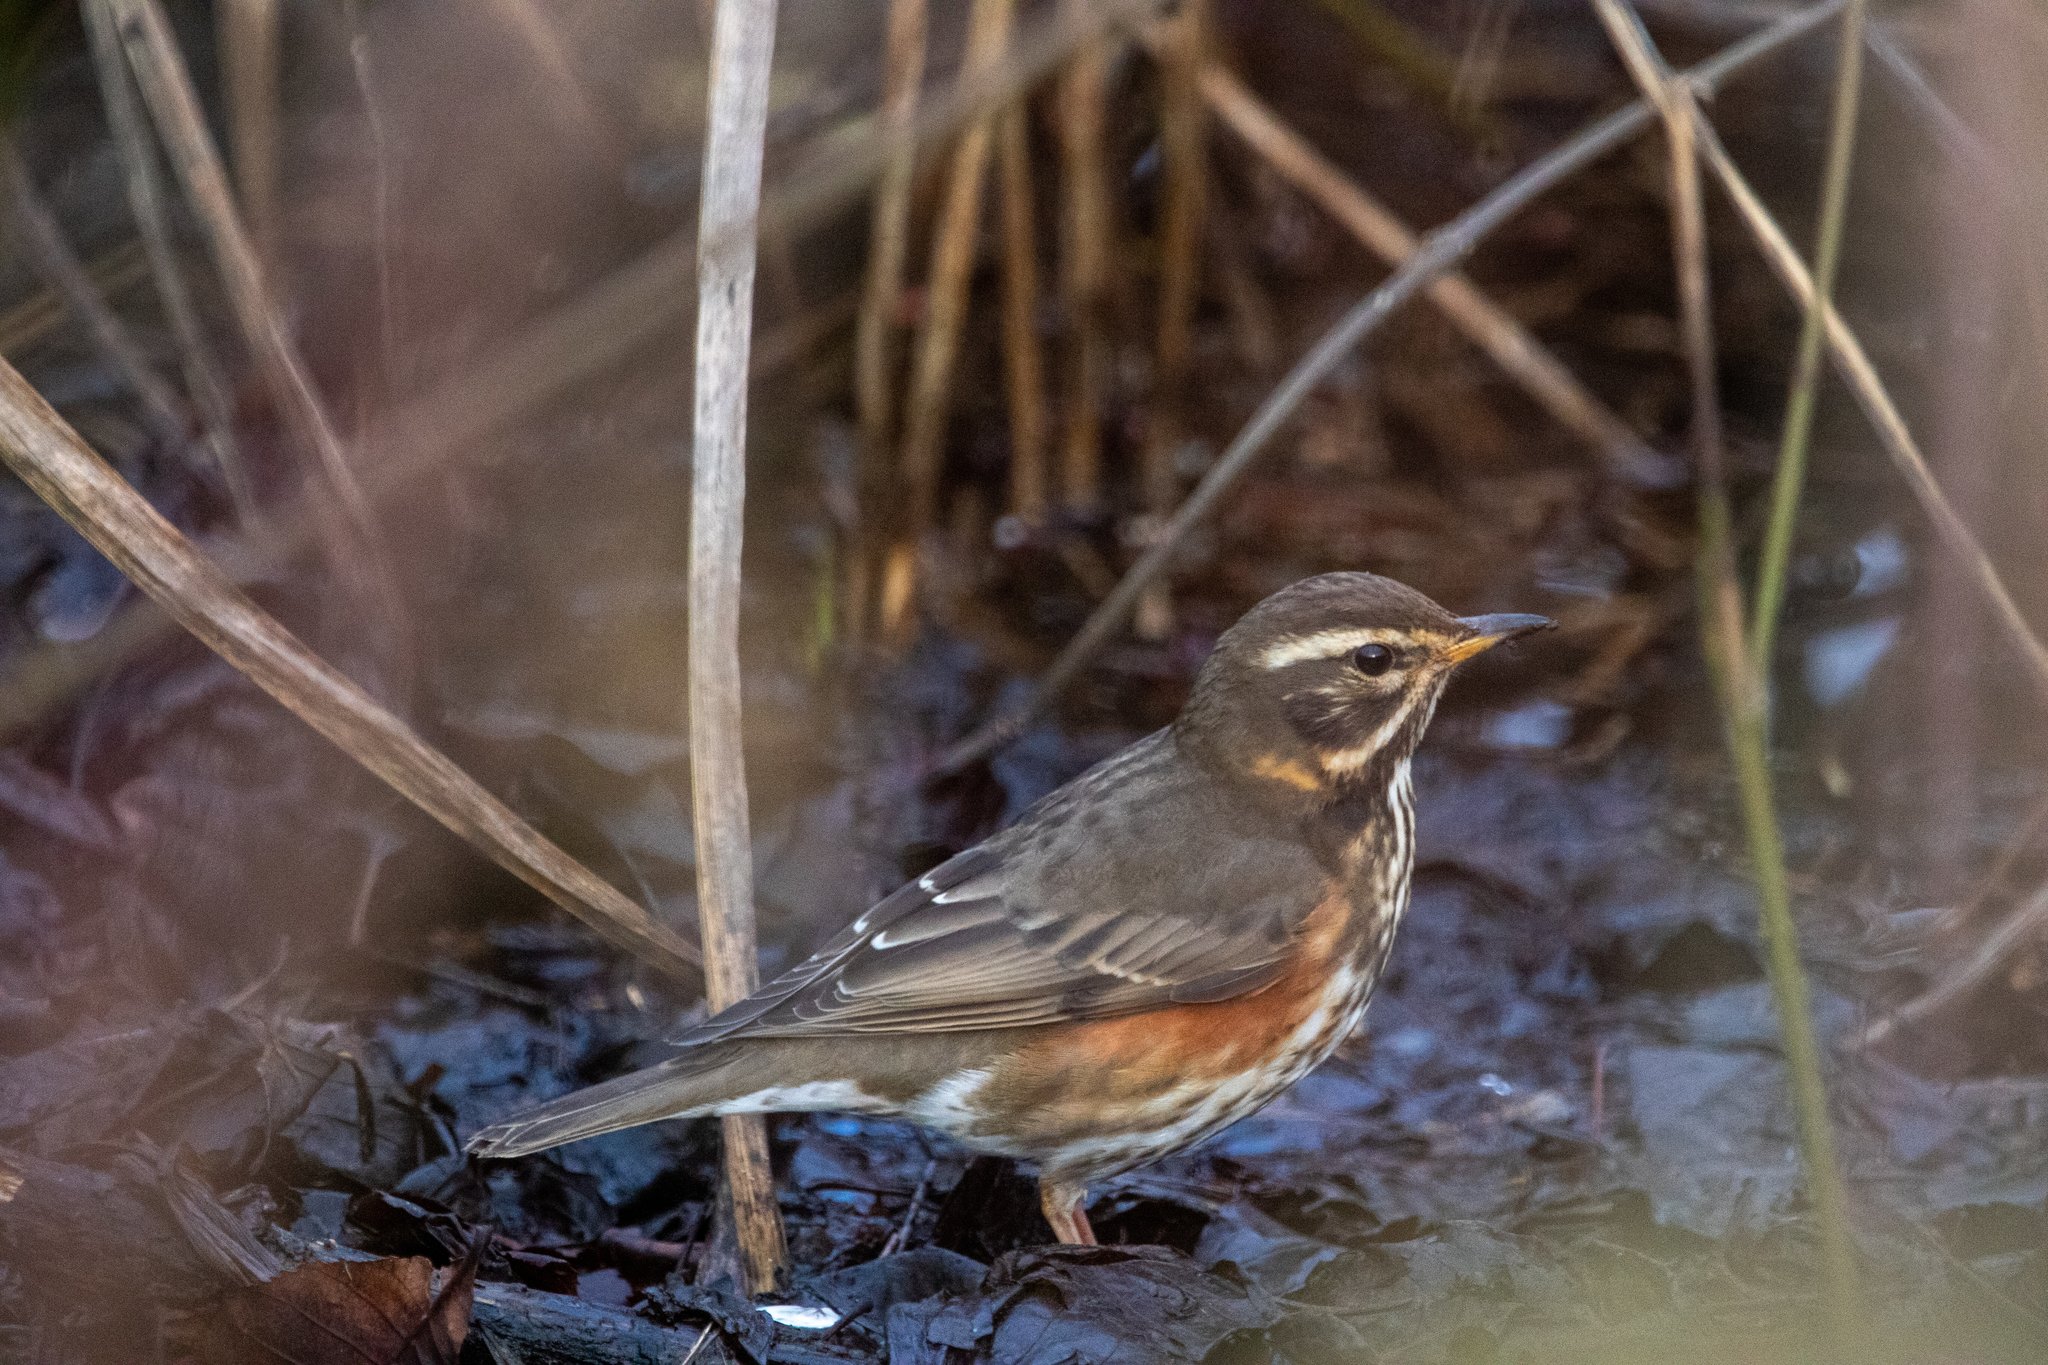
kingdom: Animalia
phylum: Chordata
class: Aves
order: Passeriformes
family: Turdidae
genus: Turdus
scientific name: Turdus iliacus
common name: Redwing
